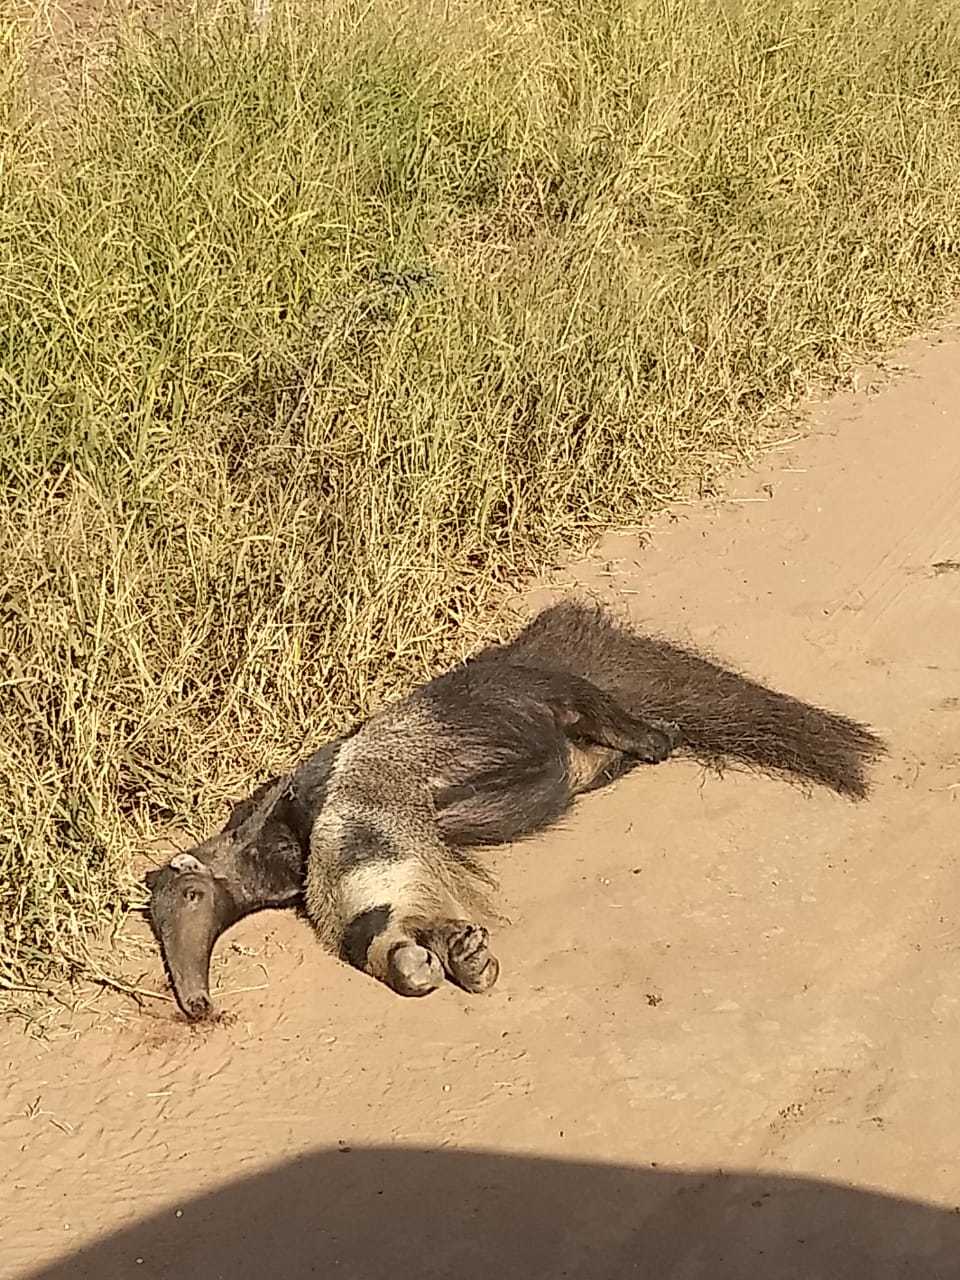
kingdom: Animalia
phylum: Chordata
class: Mammalia
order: Pilosa
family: Myrmecophagidae
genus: Myrmecophaga
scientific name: Myrmecophaga tridactyla
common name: Giant anteater
